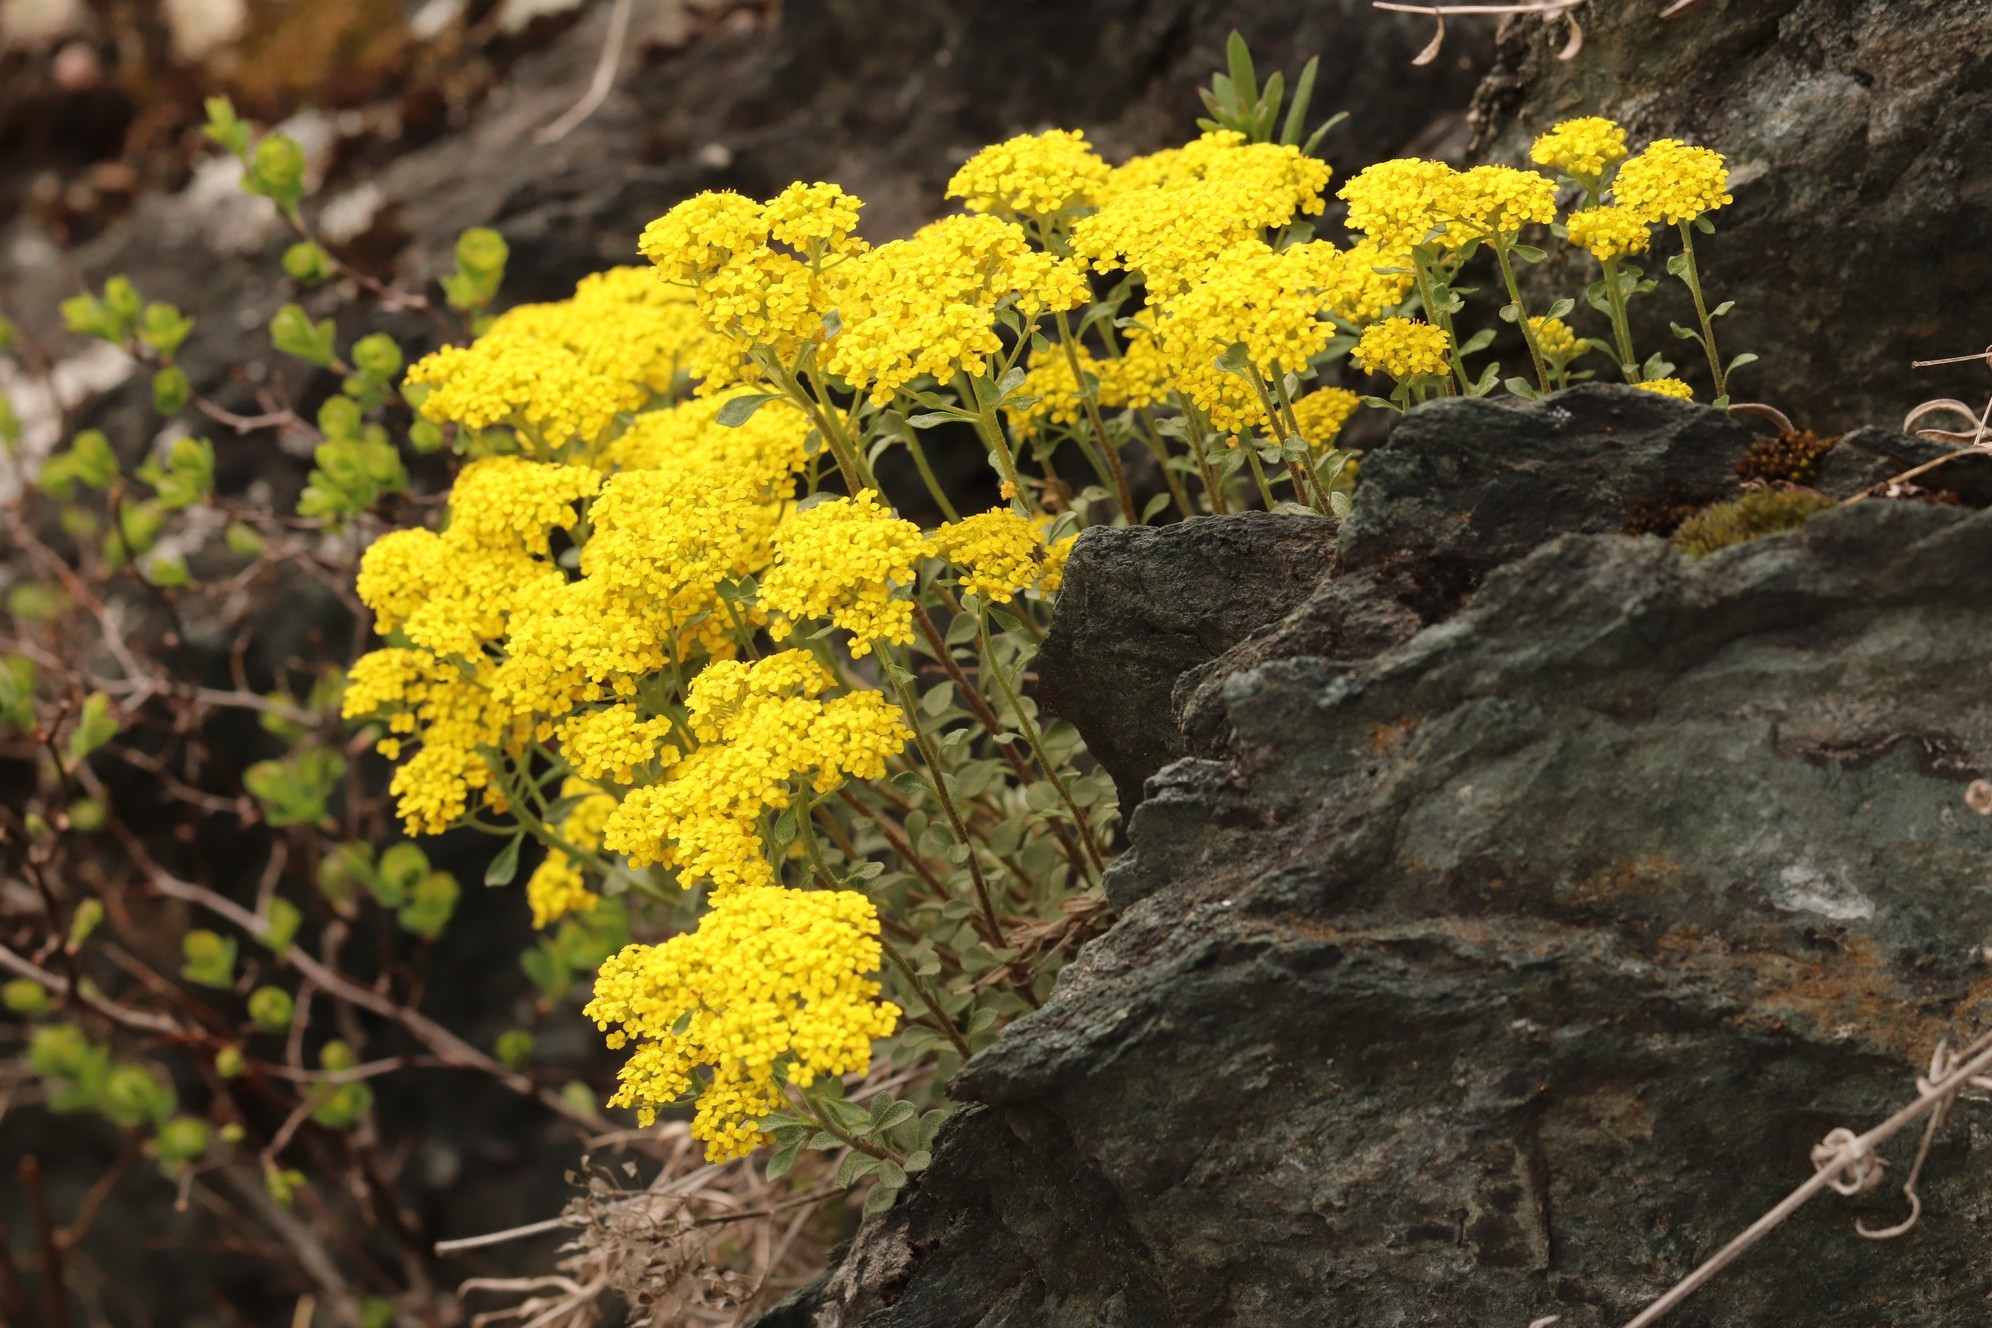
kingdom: Plantae
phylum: Tracheophyta
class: Magnoliopsida
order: Brassicales
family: Brassicaceae
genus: Odontarrhena
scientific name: Odontarrhena obovata
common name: American alyssum
